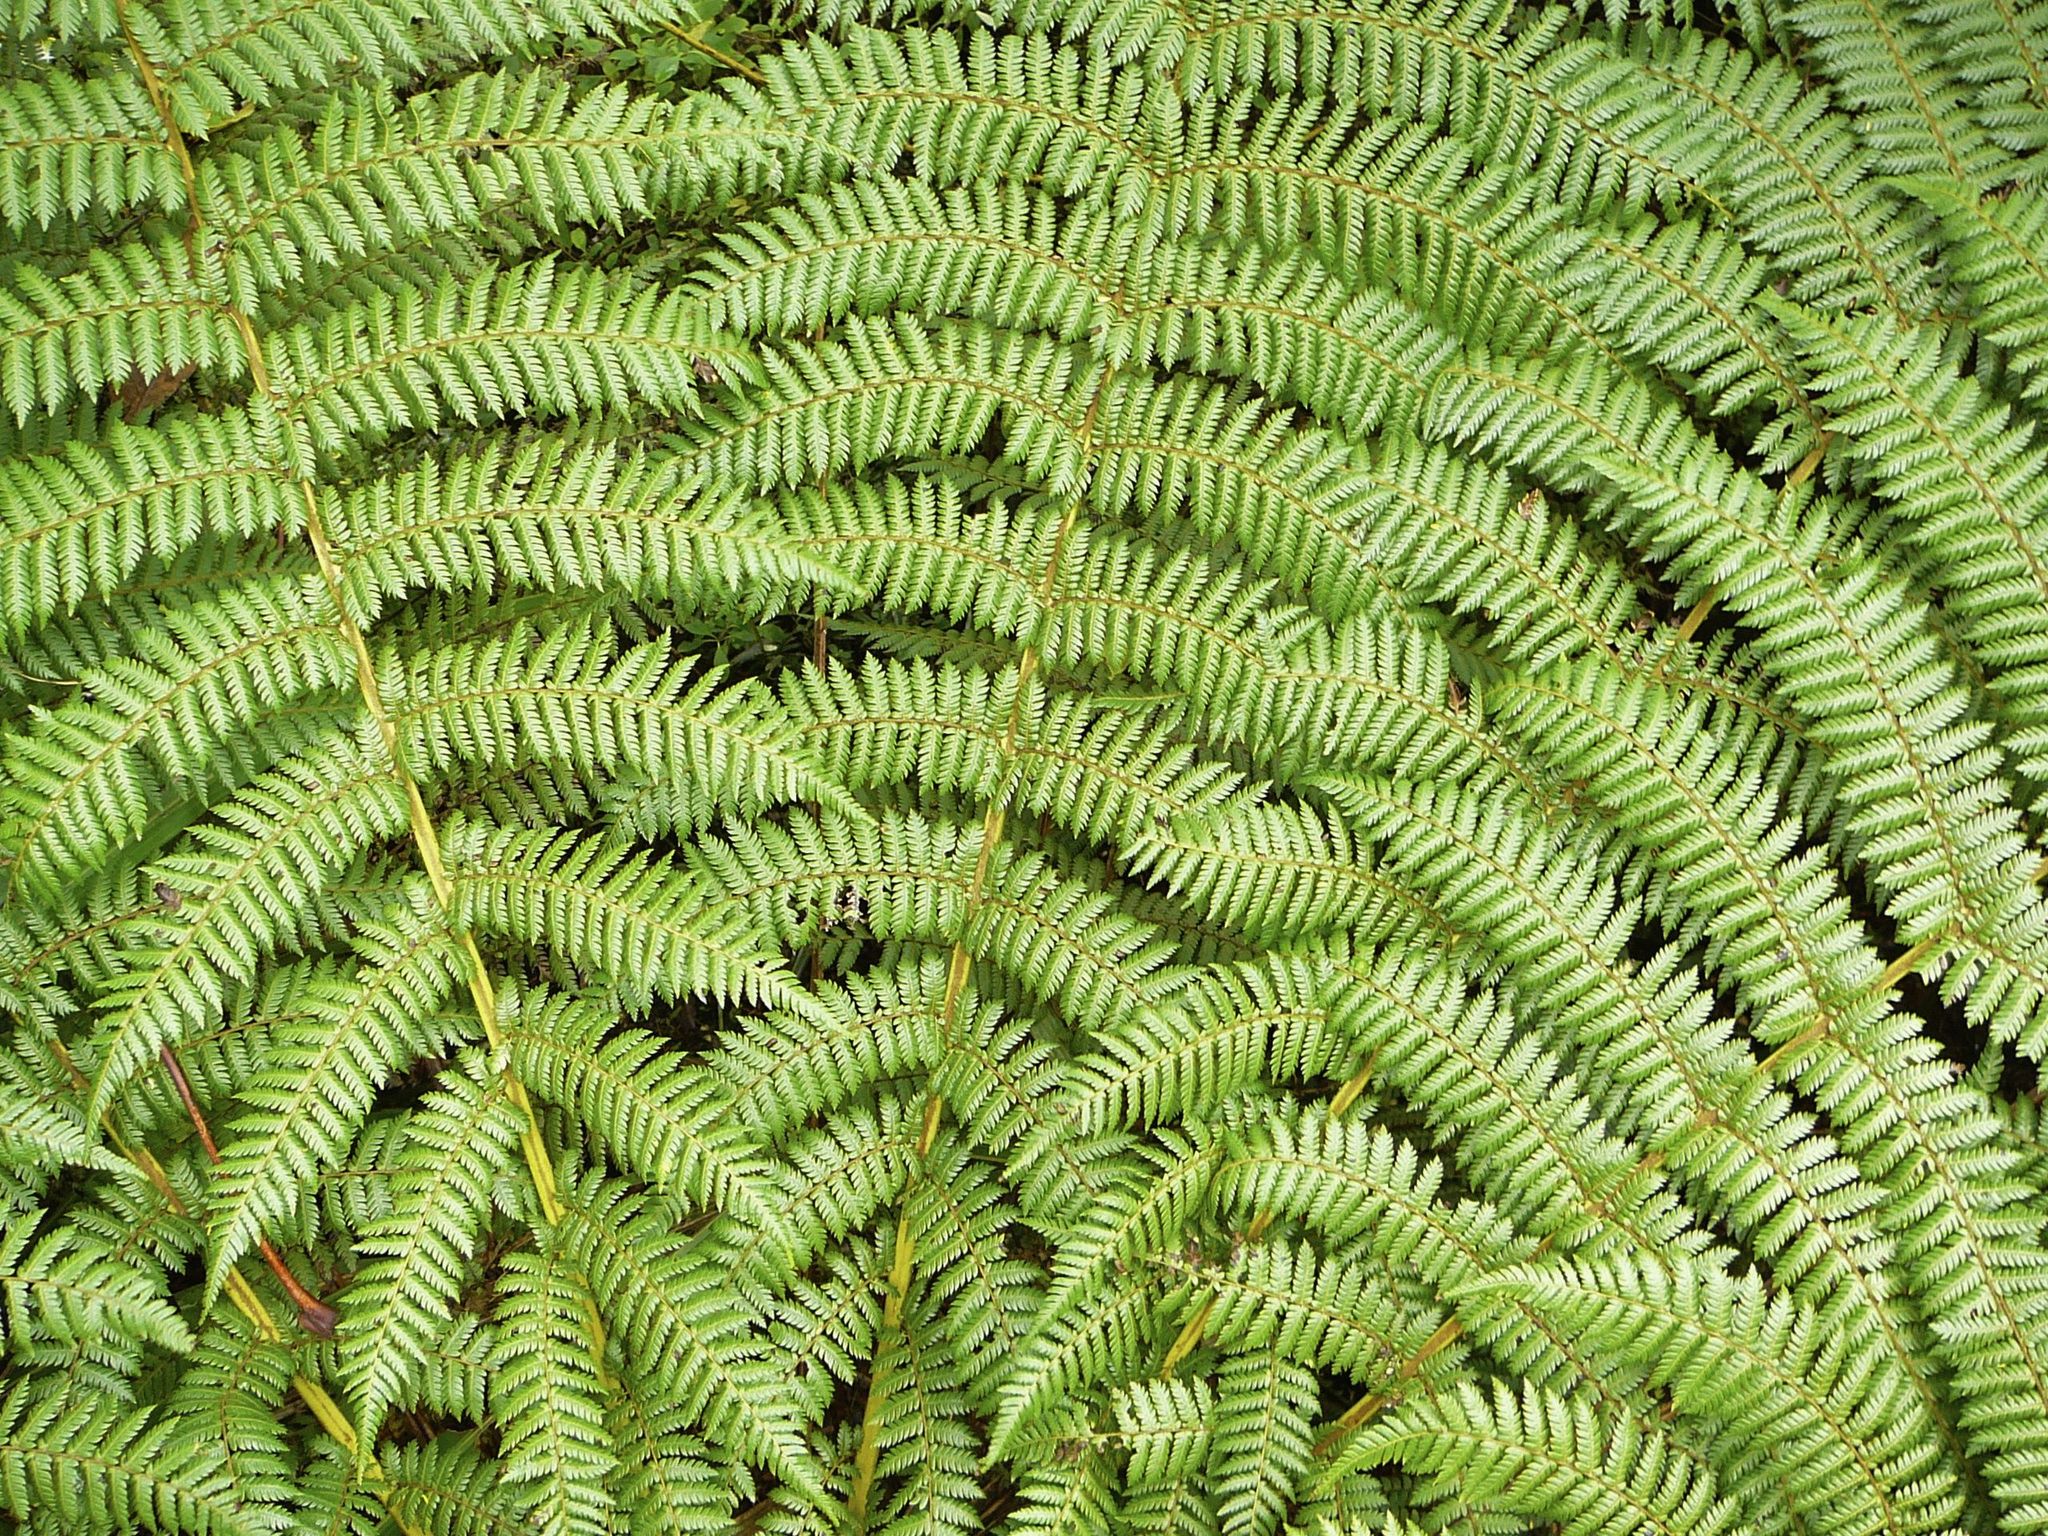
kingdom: Plantae
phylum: Tracheophyta
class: Polypodiopsida
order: Cyatheales
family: Cyatheaceae
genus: Alsophila
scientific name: Alsophila smithii
